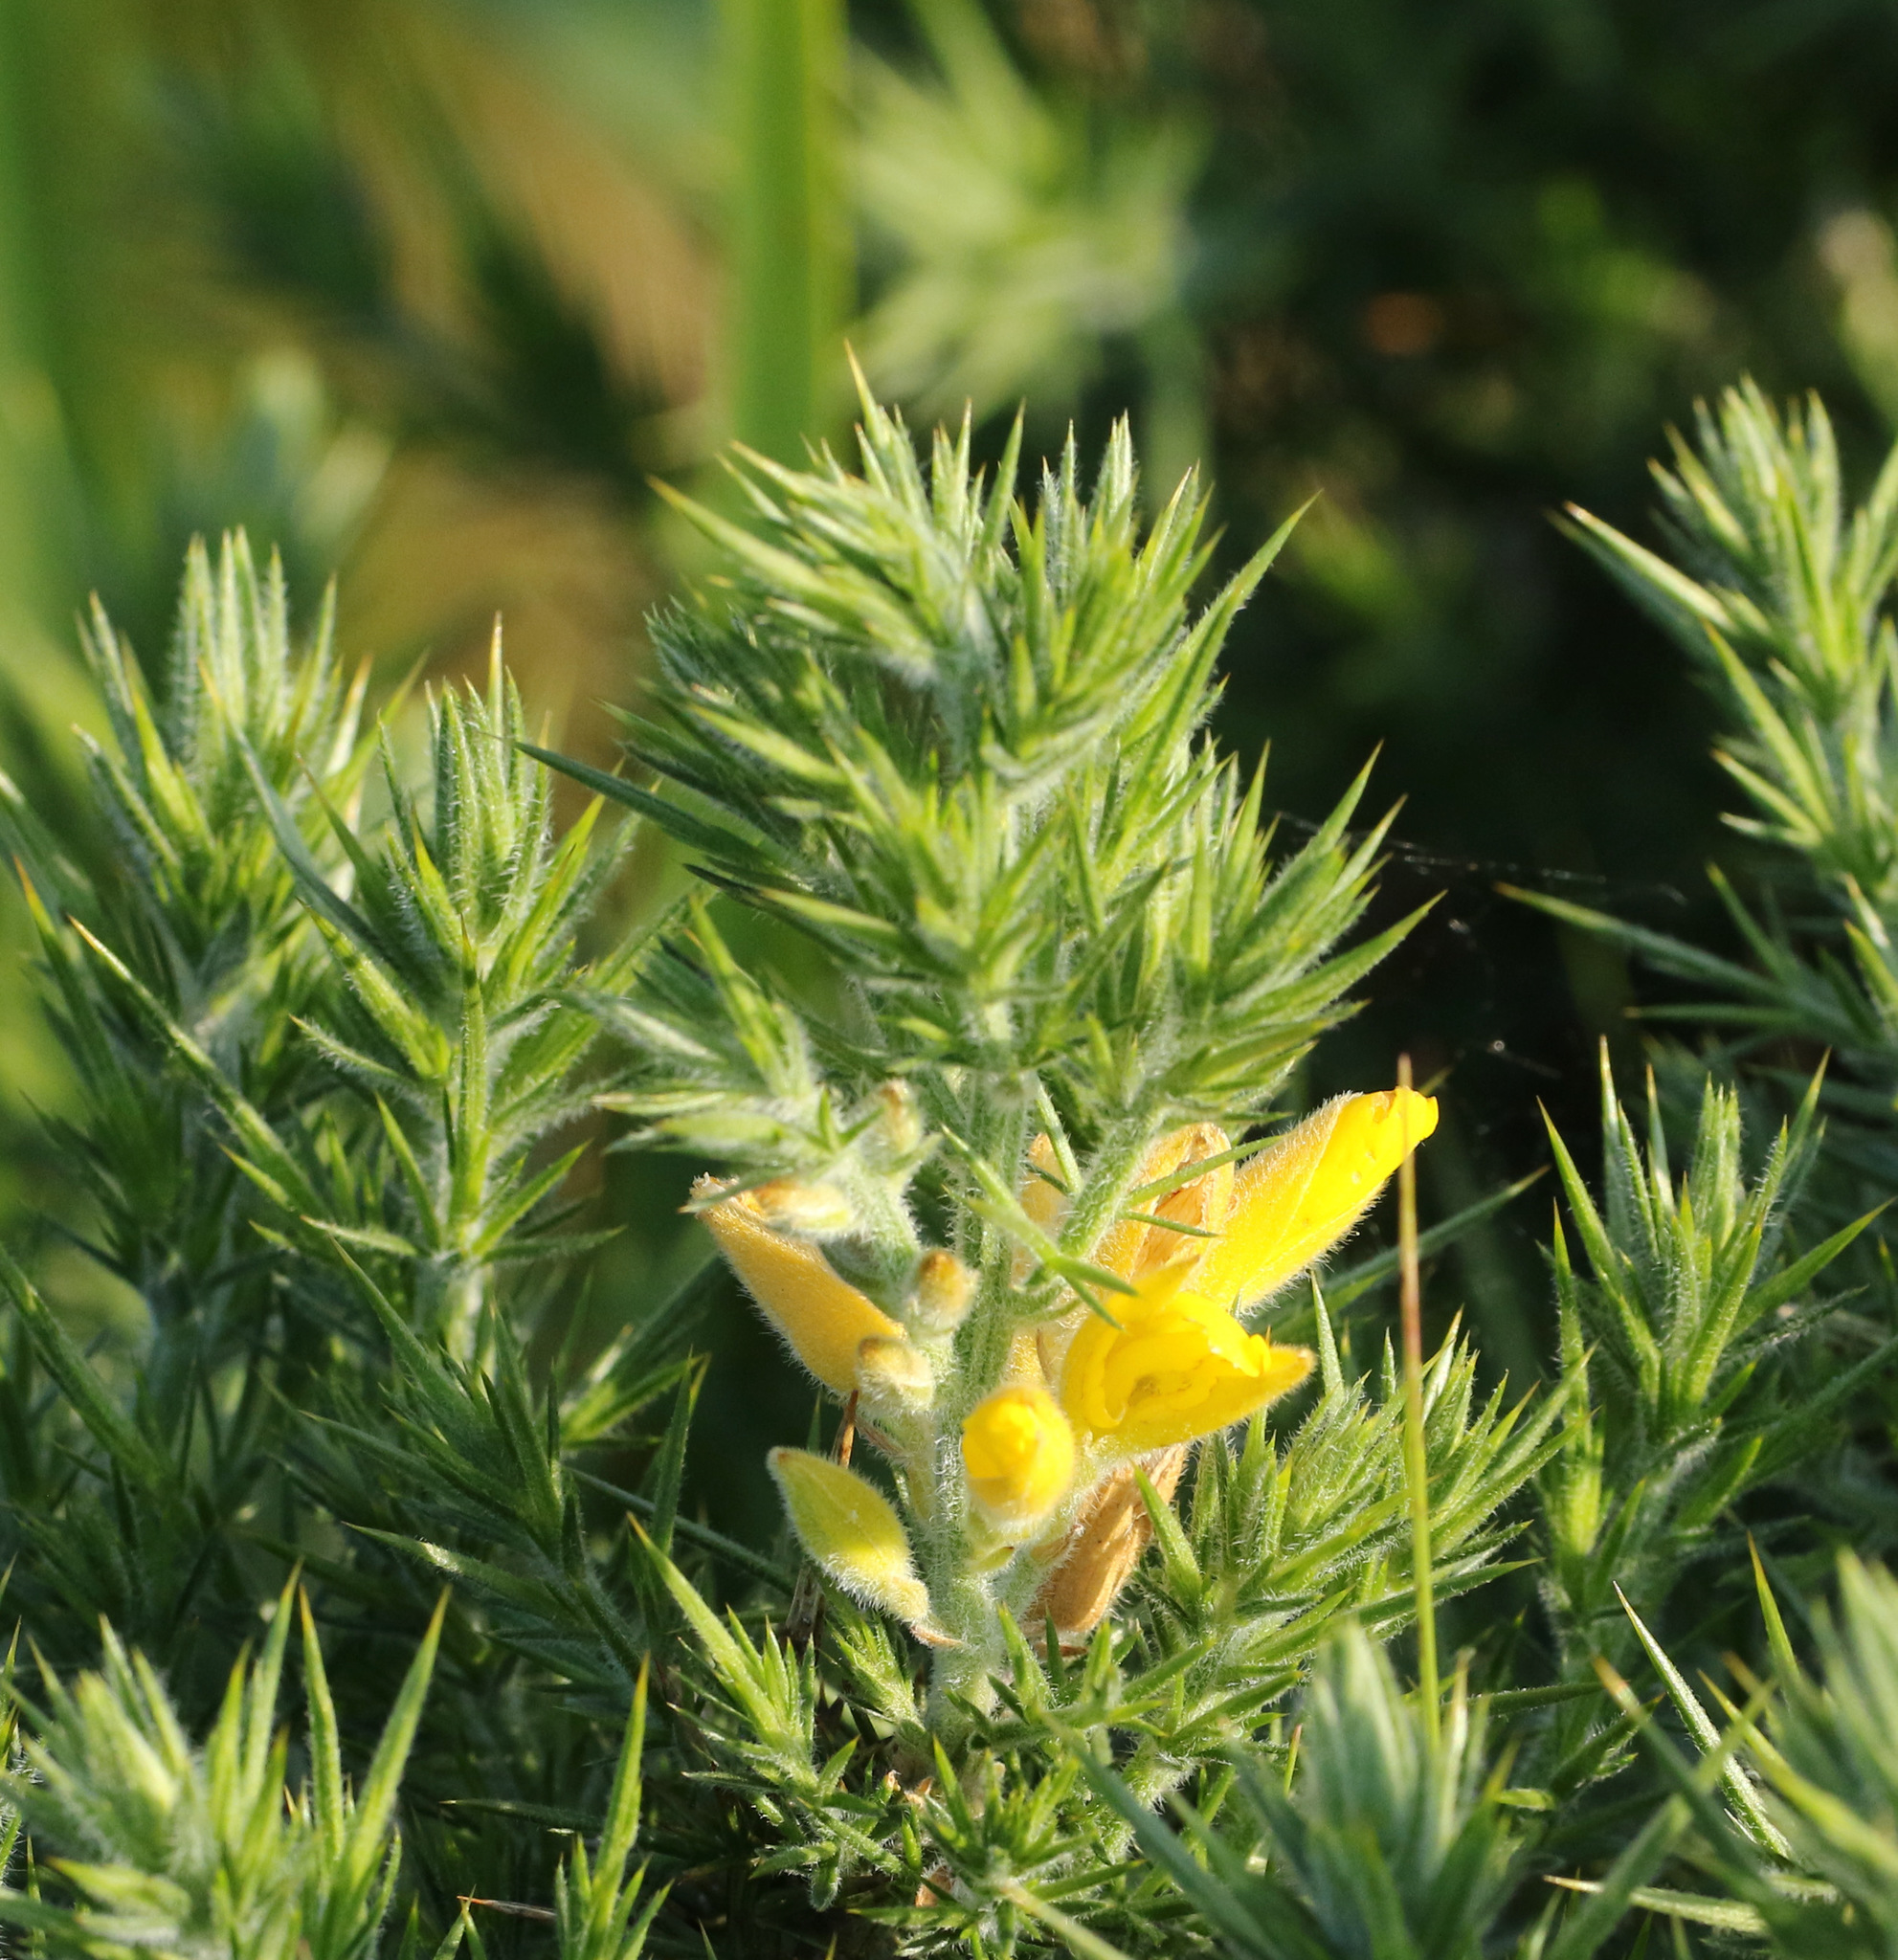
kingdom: Plantae
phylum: Tracheophyta
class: Magnoliopsida
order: Fabales
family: Fabaceae
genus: Ulex
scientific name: Ulex europaeus
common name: Common gorse
